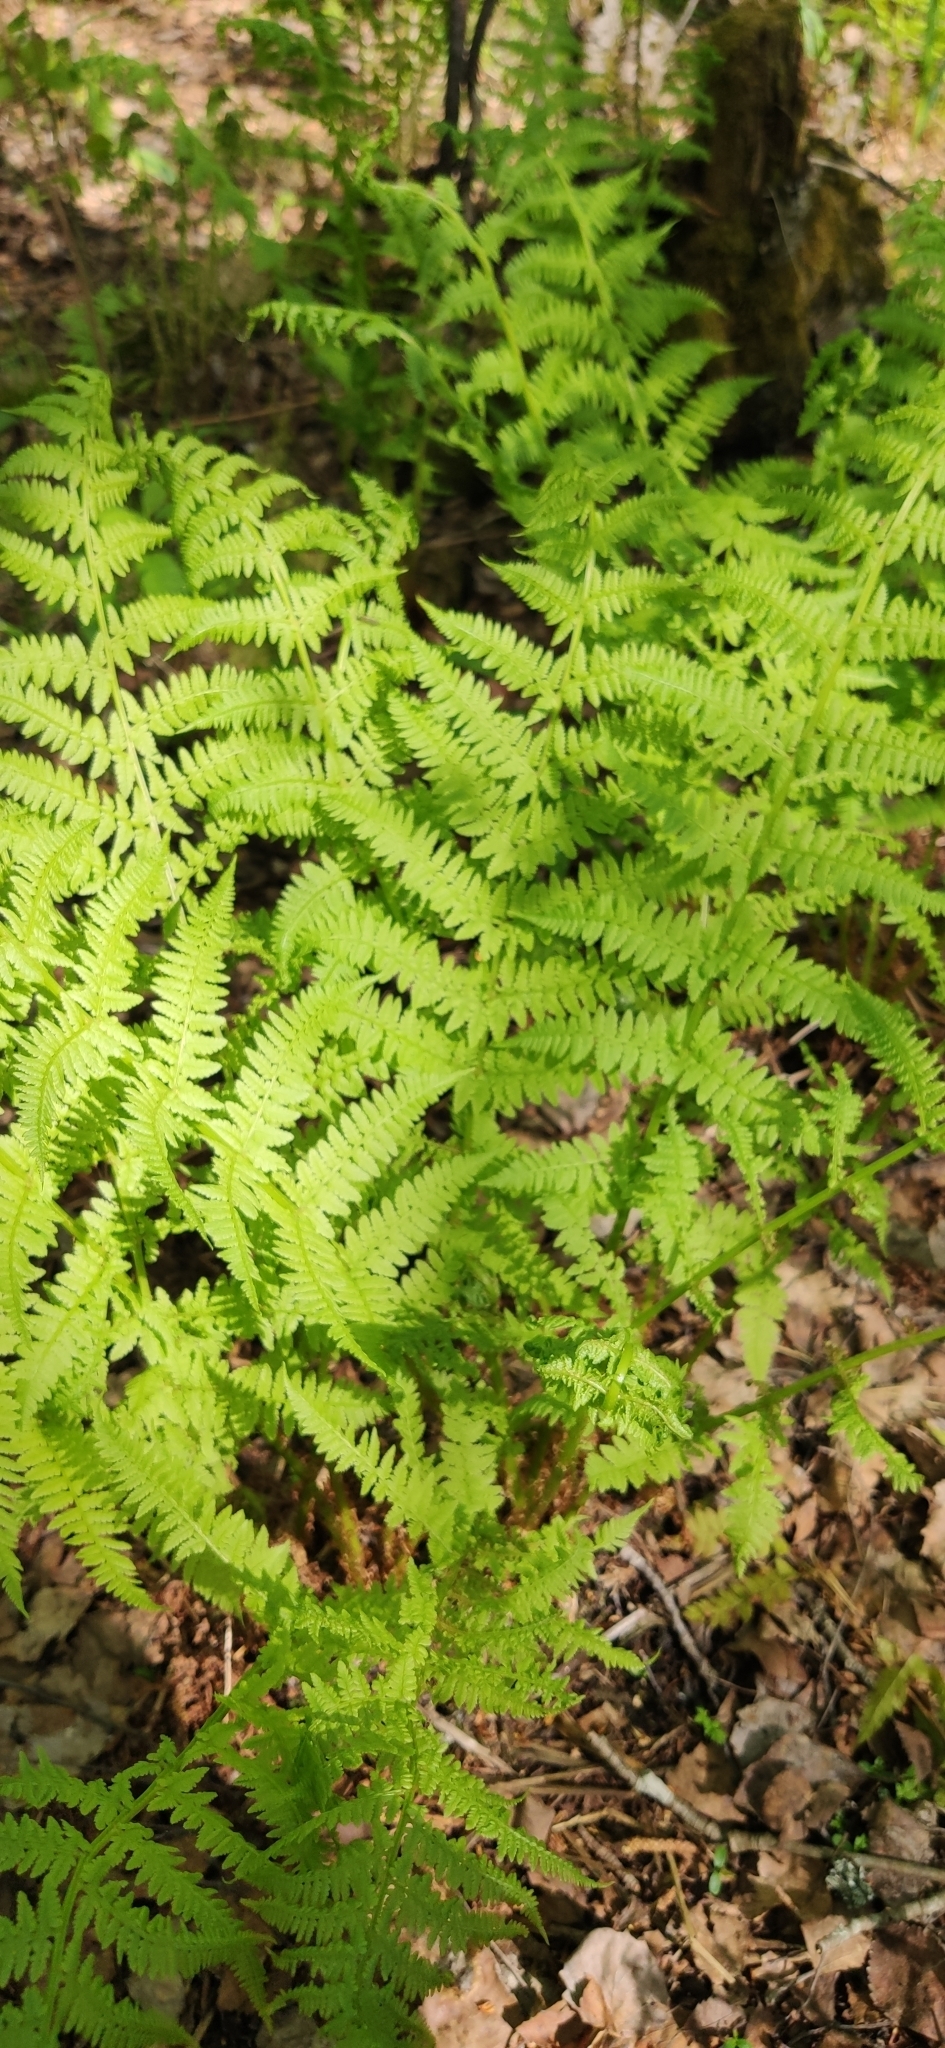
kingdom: Plantae
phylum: Tracheophyta
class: Polypodiopsida
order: Polypodiales
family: Athyriaceae
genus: Athyrium
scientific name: Athyrium filix-femina
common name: Lady fern
